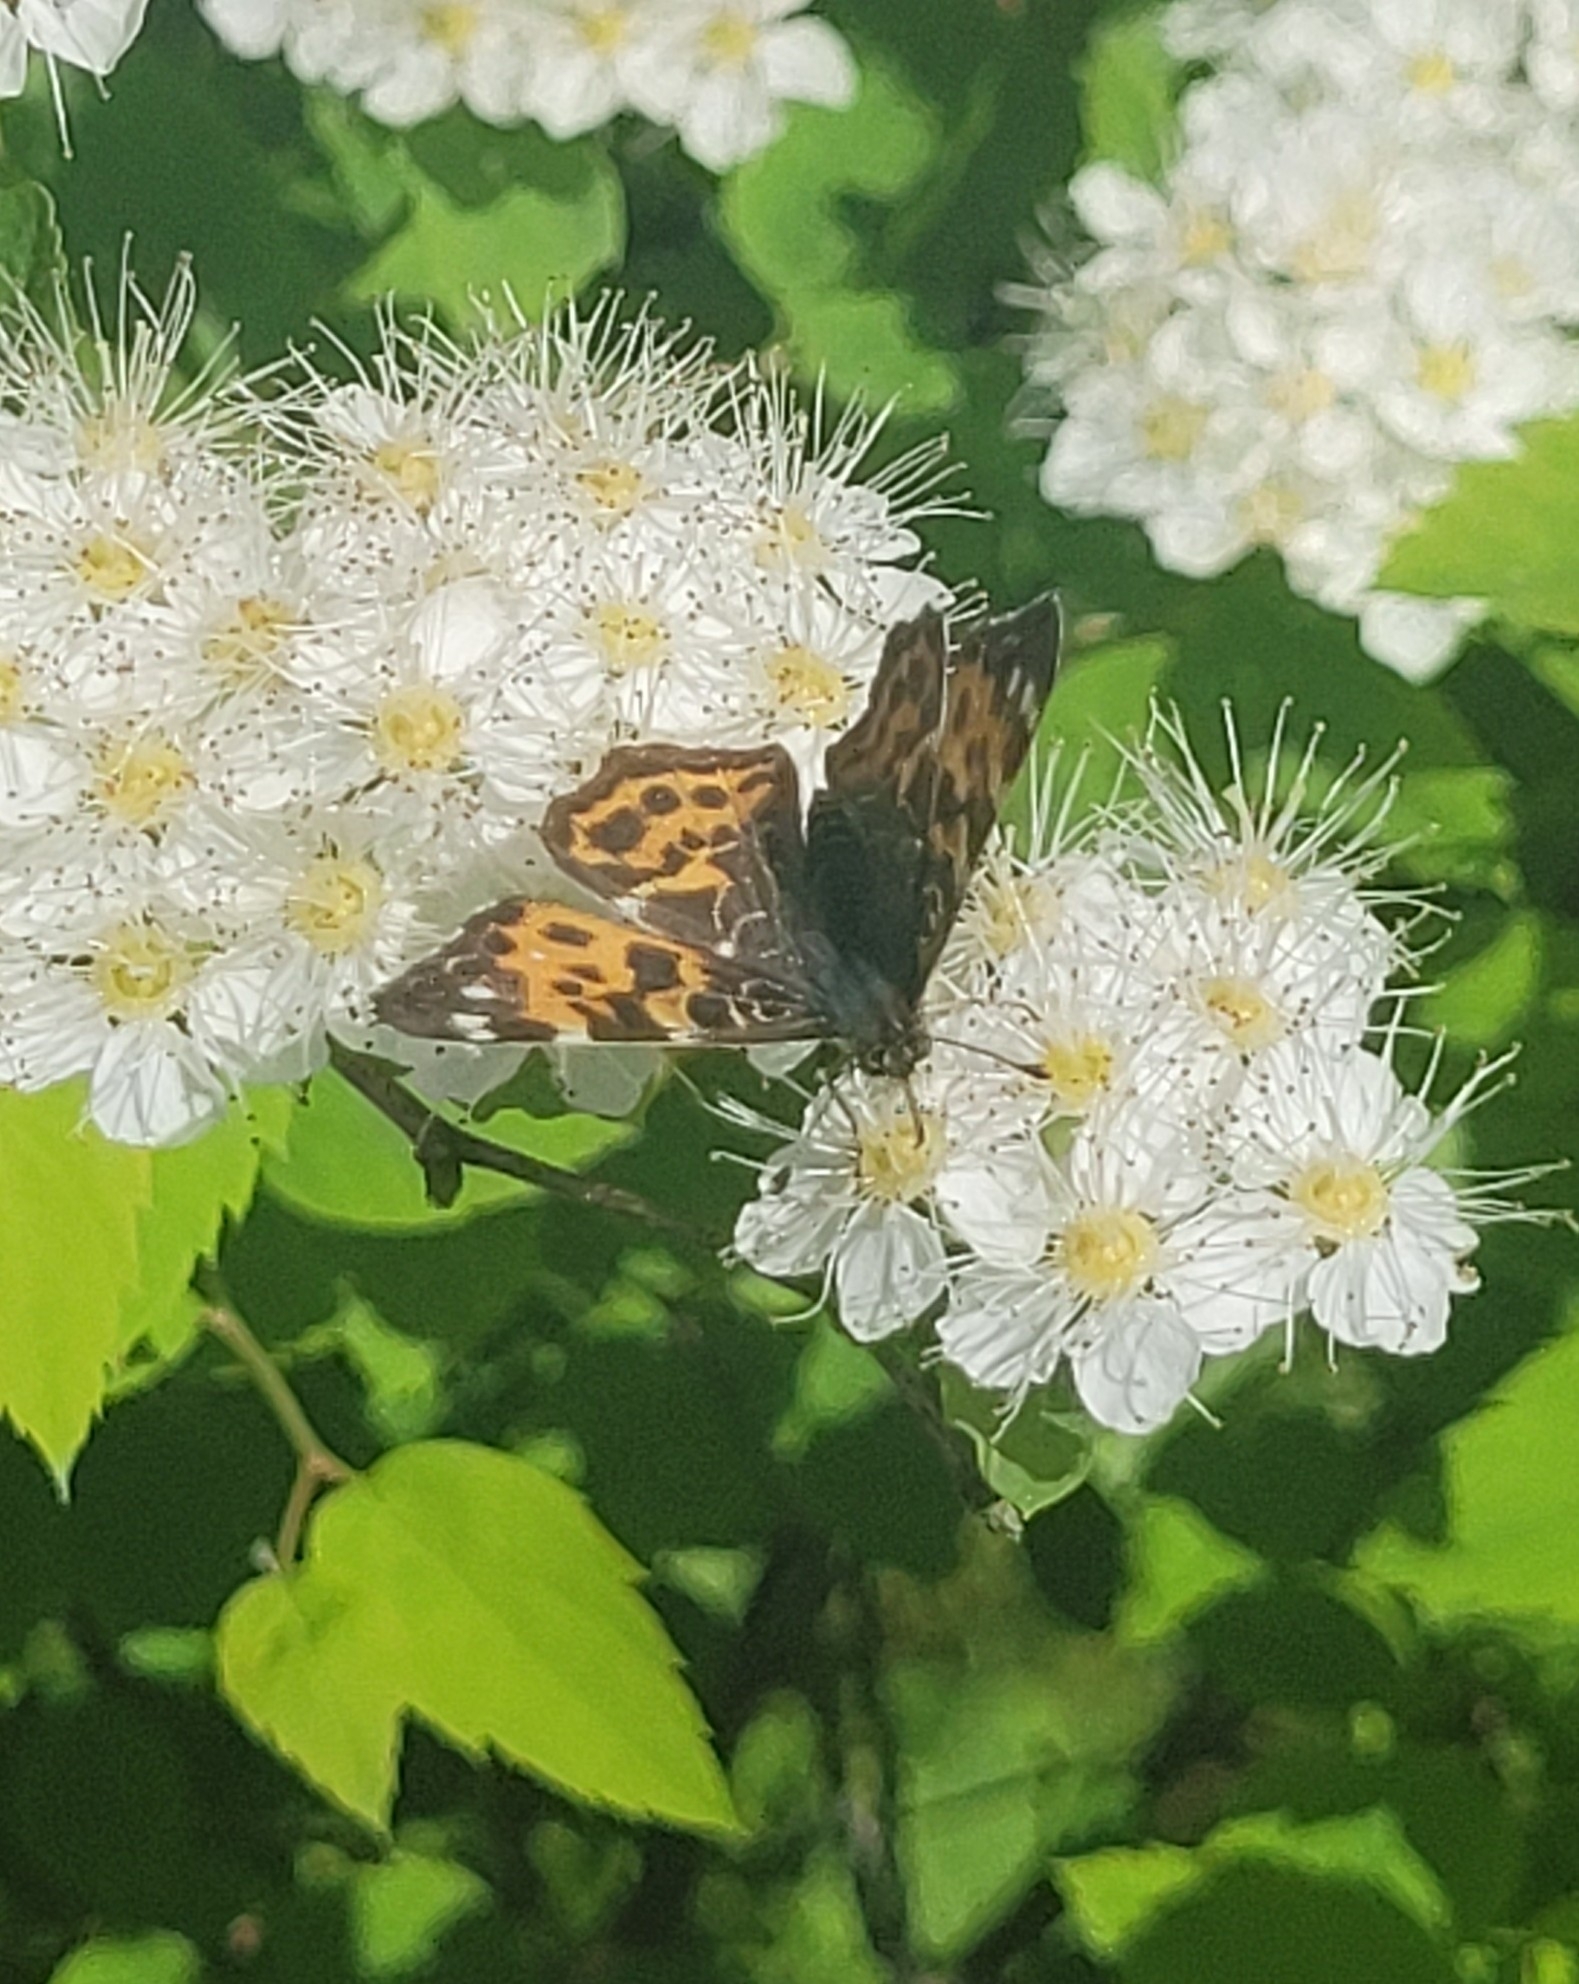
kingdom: Animalia
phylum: Arthropoda
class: Insecta
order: Lepidoptera
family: Nymphalidae
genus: Araschnia
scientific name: Araschnia levana
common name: Map butterfly
